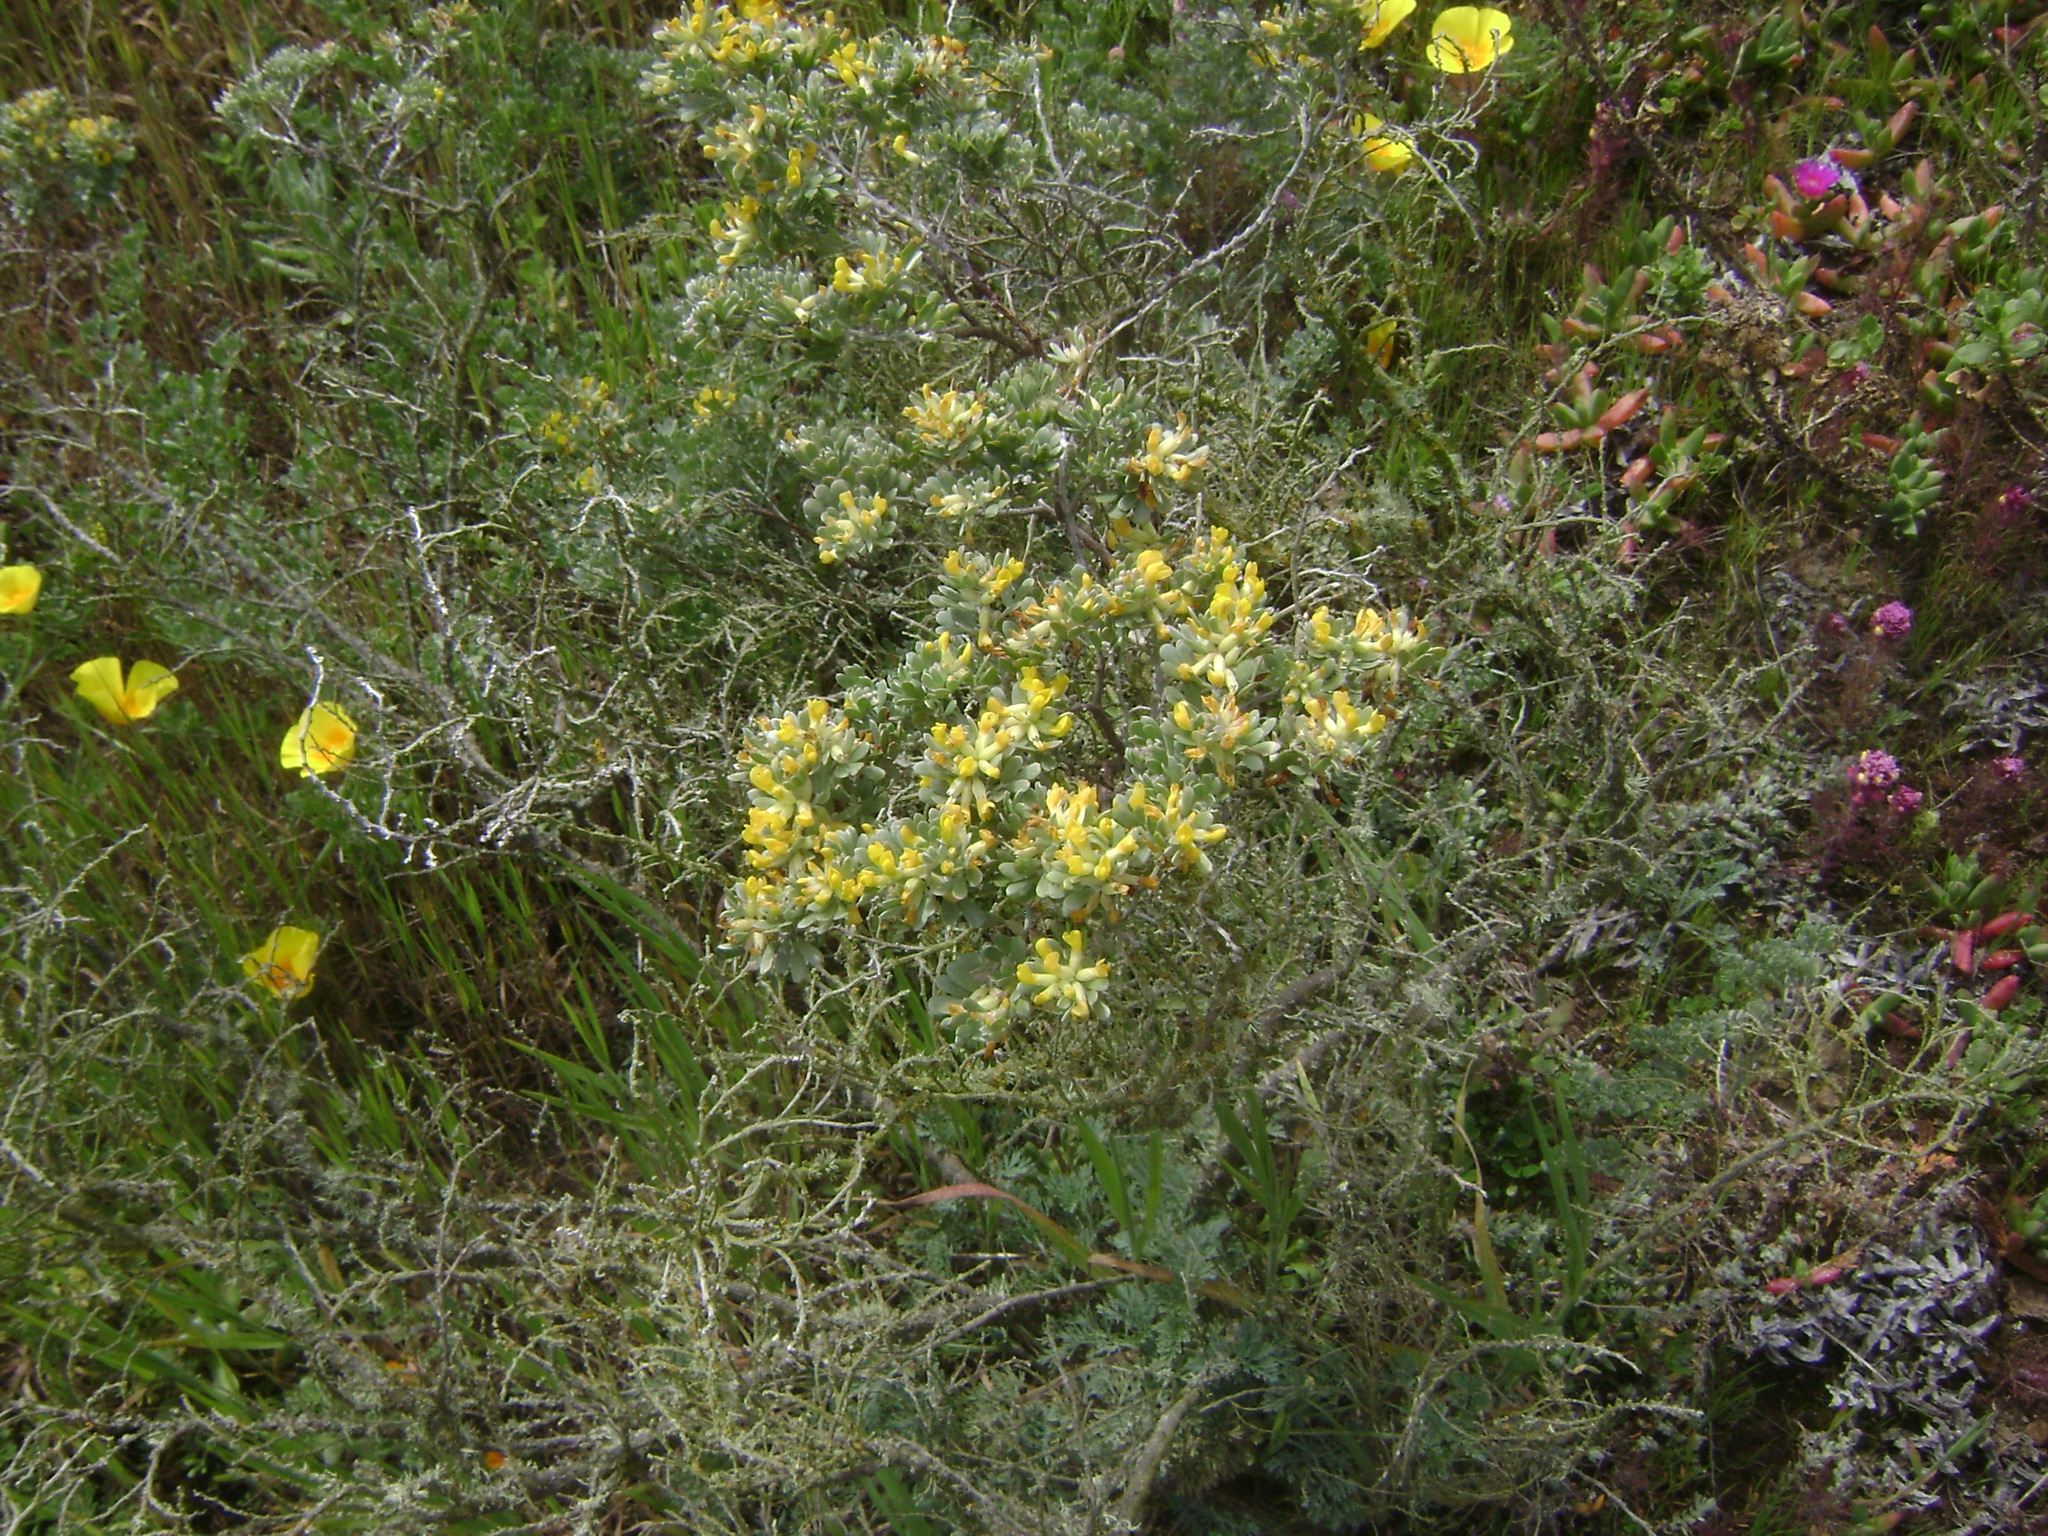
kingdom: Plantae
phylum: Tracheophyta
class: Magnoliopsida
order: Fabales
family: Fabaceae
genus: Acmispon
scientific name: Acmispon dendroideus
